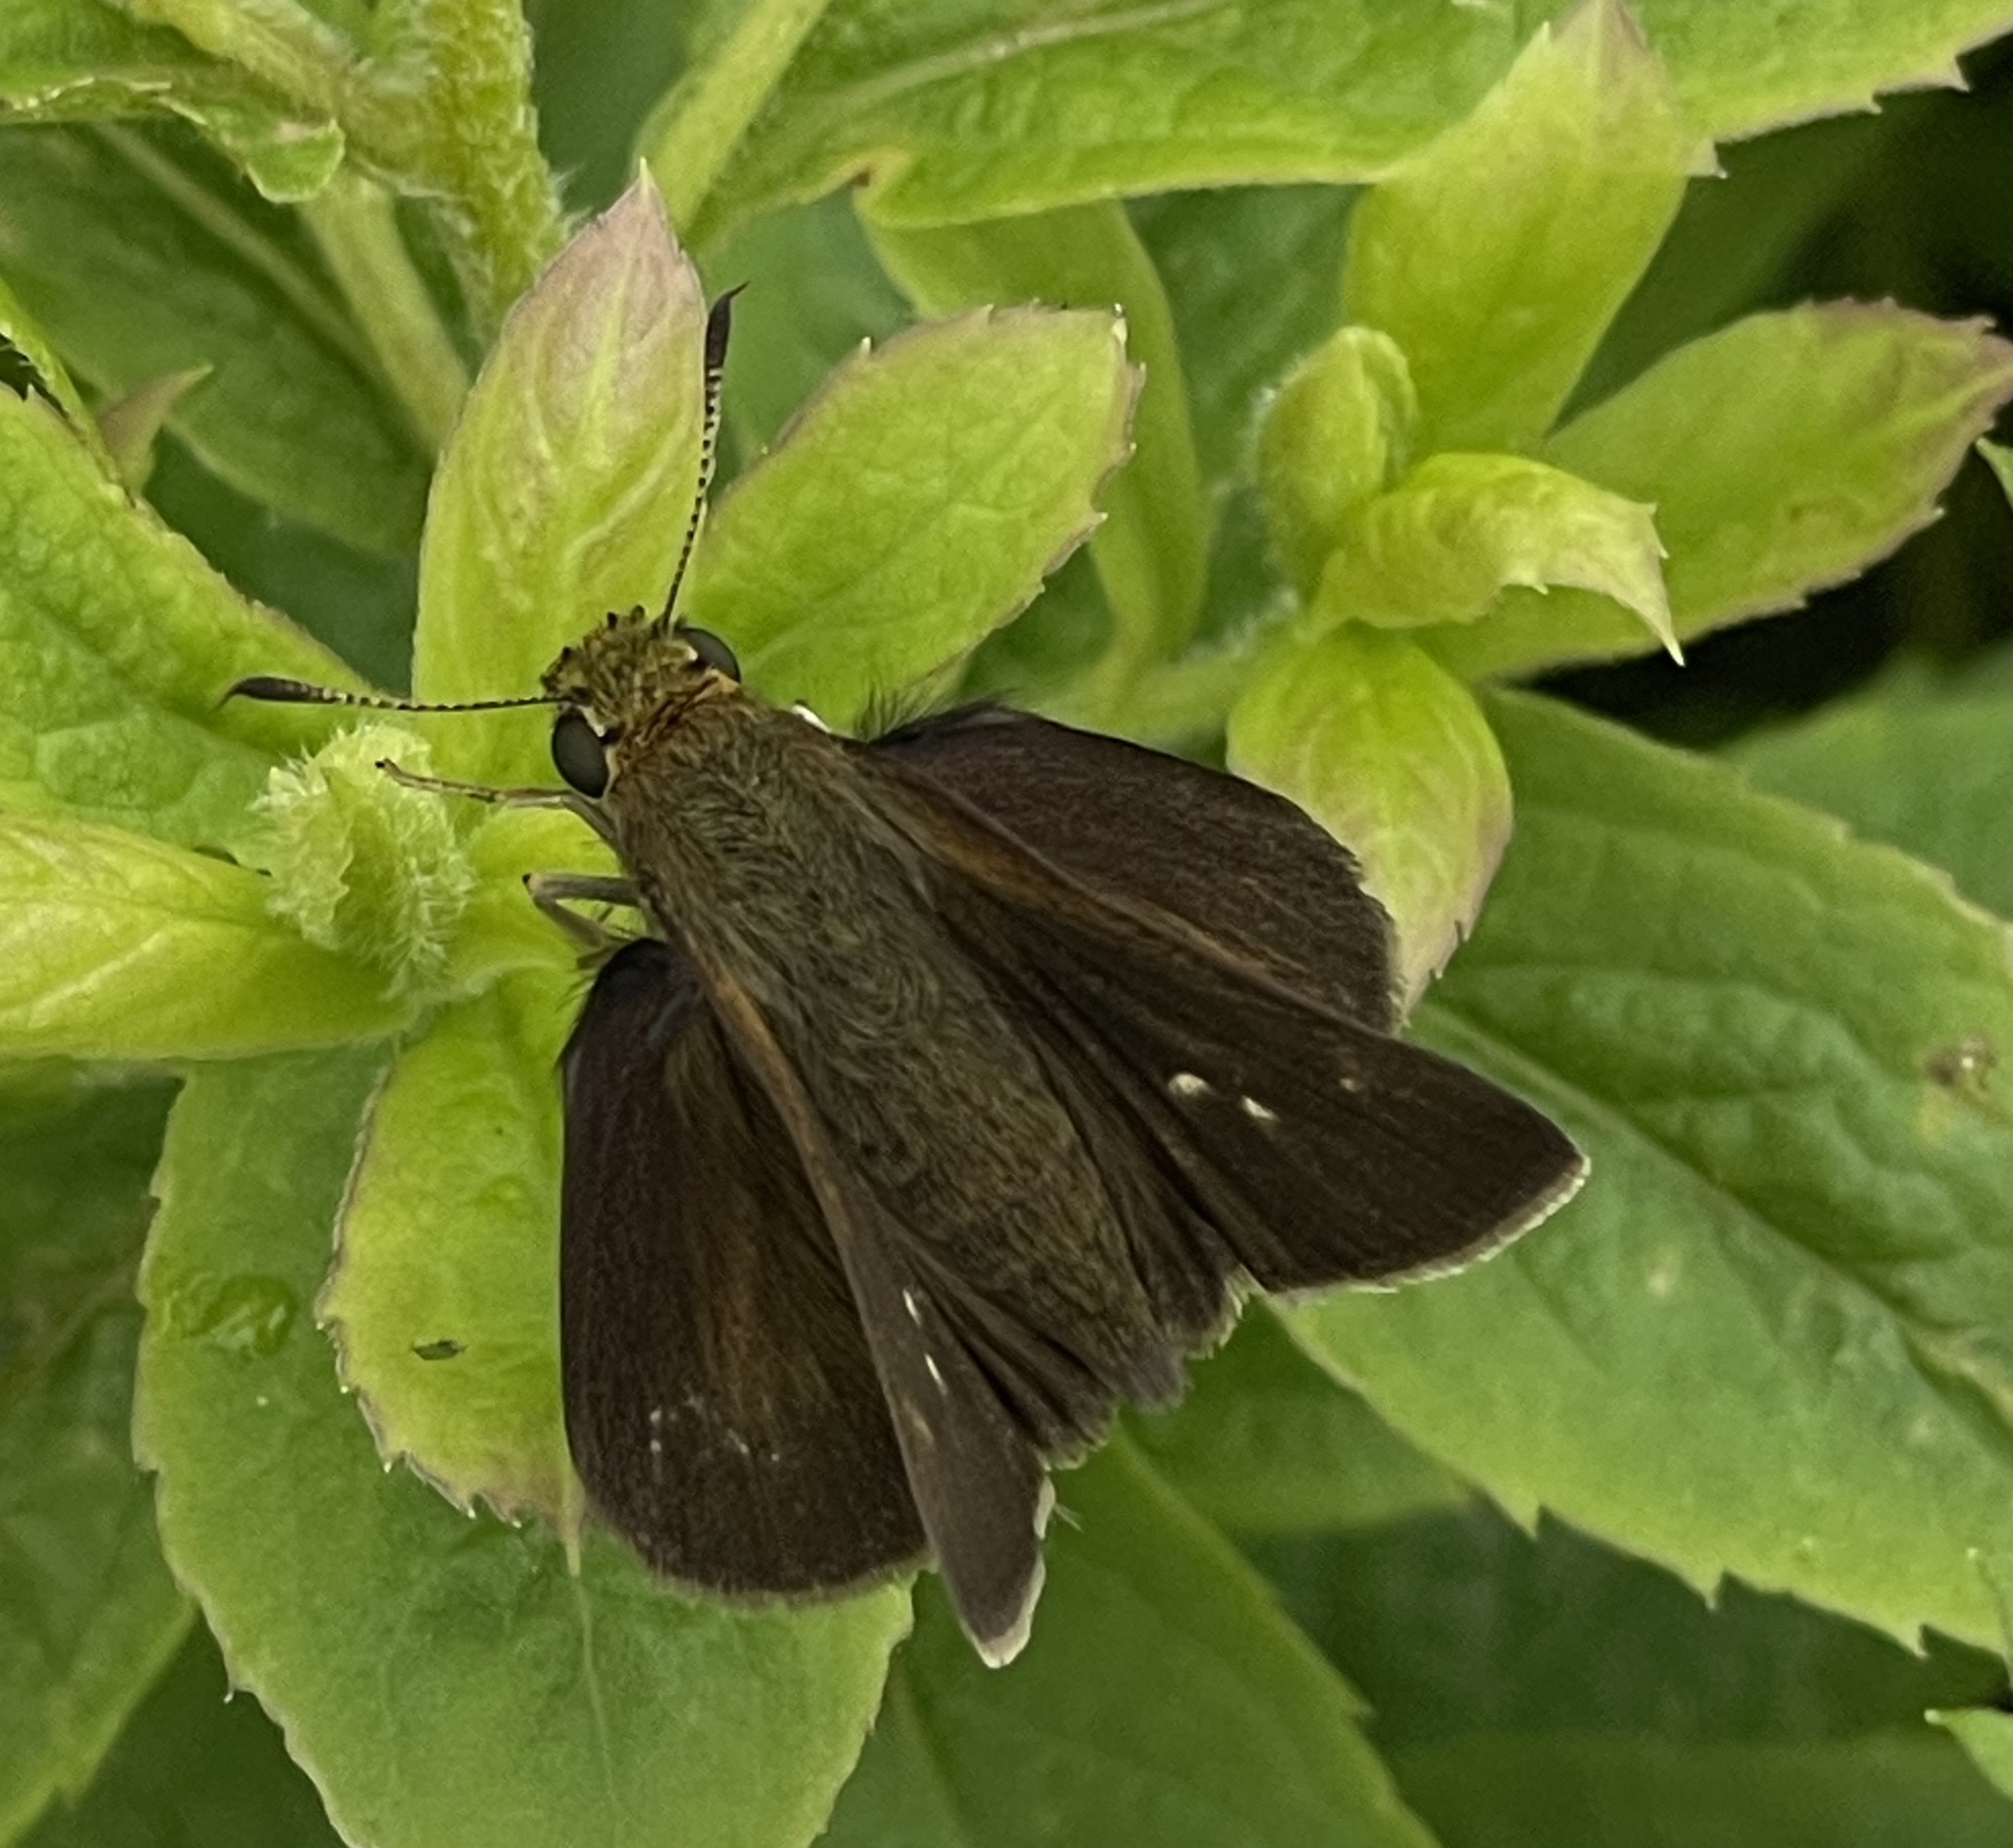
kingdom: Animalia
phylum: Arthropoda
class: Insecta
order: Lepidoptera
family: Hesperiidae
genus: Euphyes
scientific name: Euphyes vestris
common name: Dun skipper
